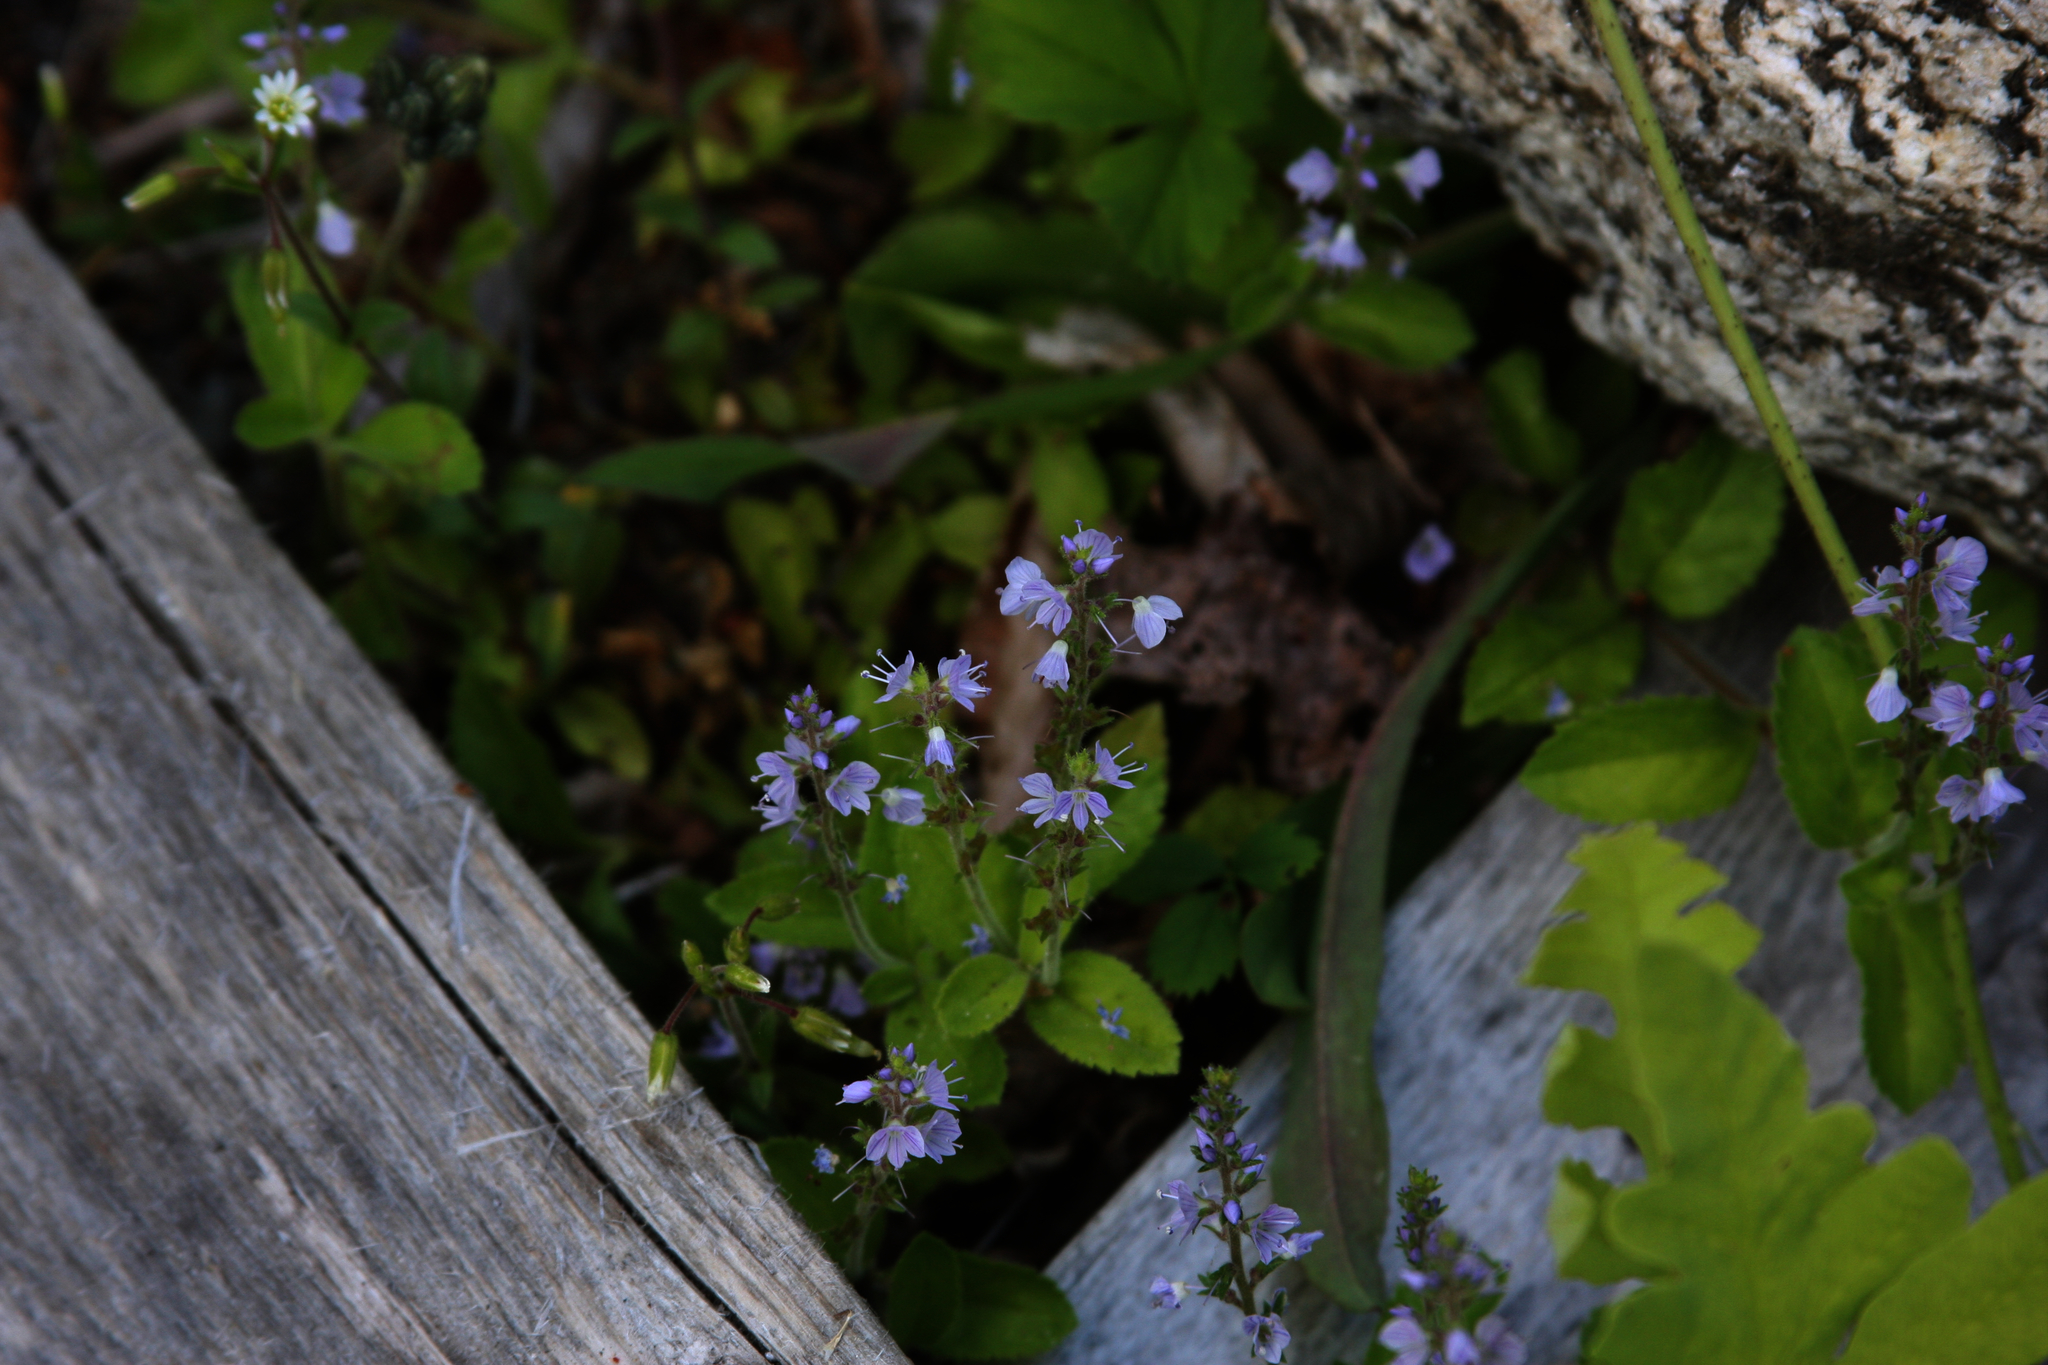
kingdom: Plantae
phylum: Tracheophyta
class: Magnoliopsida
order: Lamiales
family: Plantaginaceae
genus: Veronica
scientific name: Veronica officinalis
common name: Common speedwell
